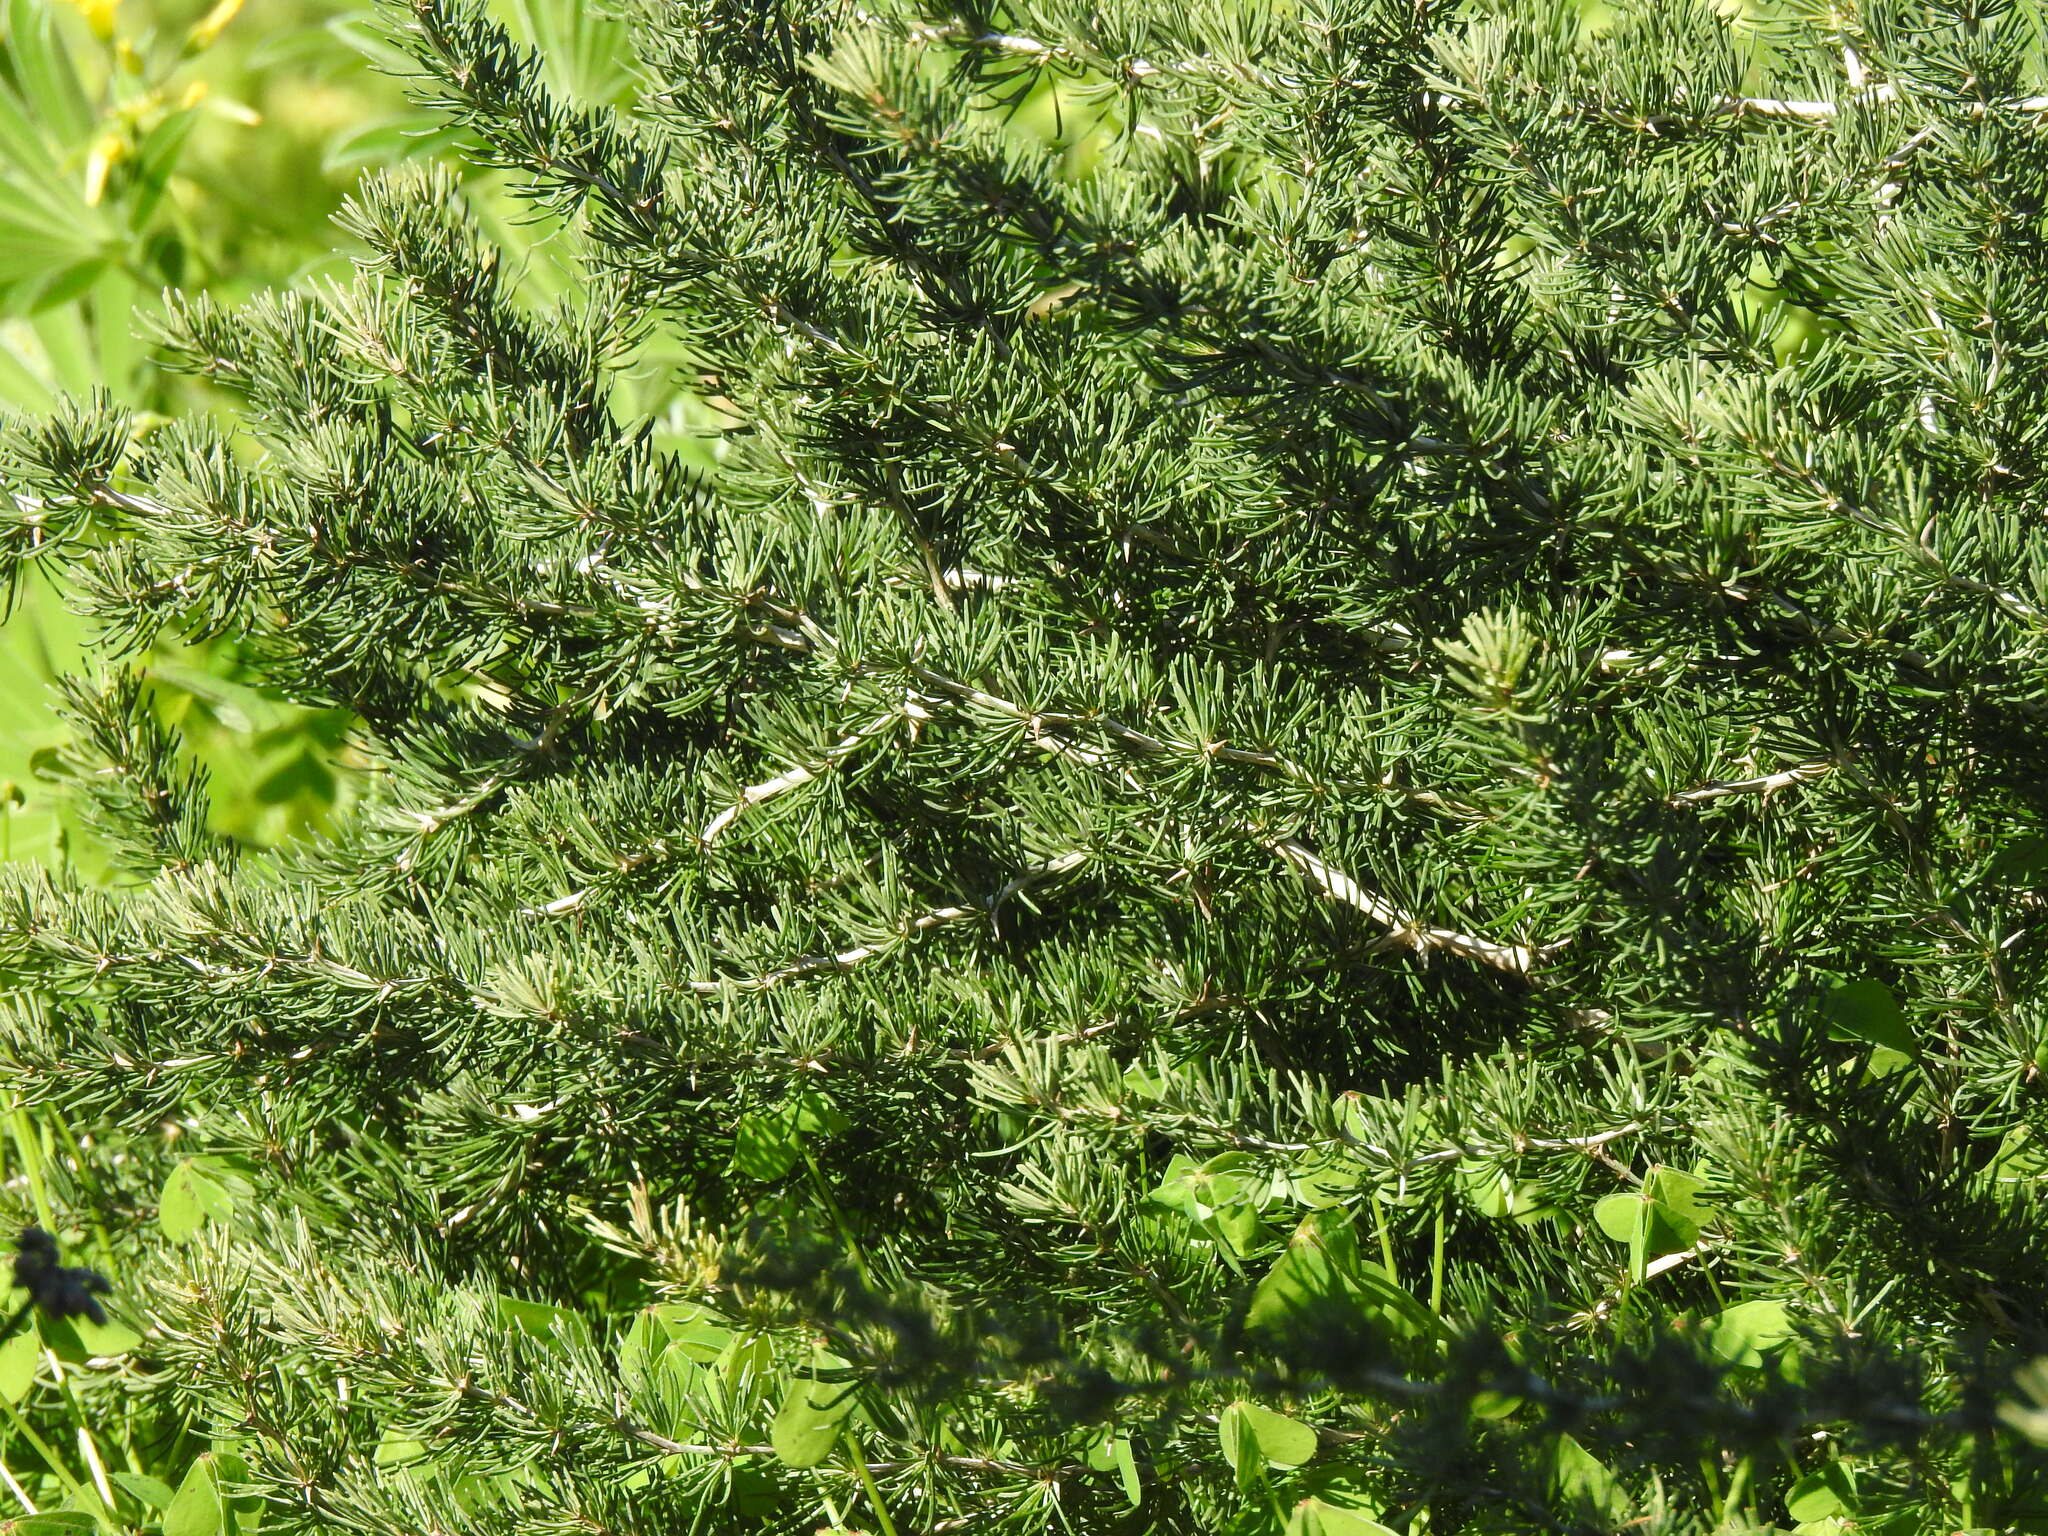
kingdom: Plantae
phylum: Tracheophyta
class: Liliopsida
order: Asparagales
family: Asparagaceae
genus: Asparagus
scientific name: Asparagus albus
